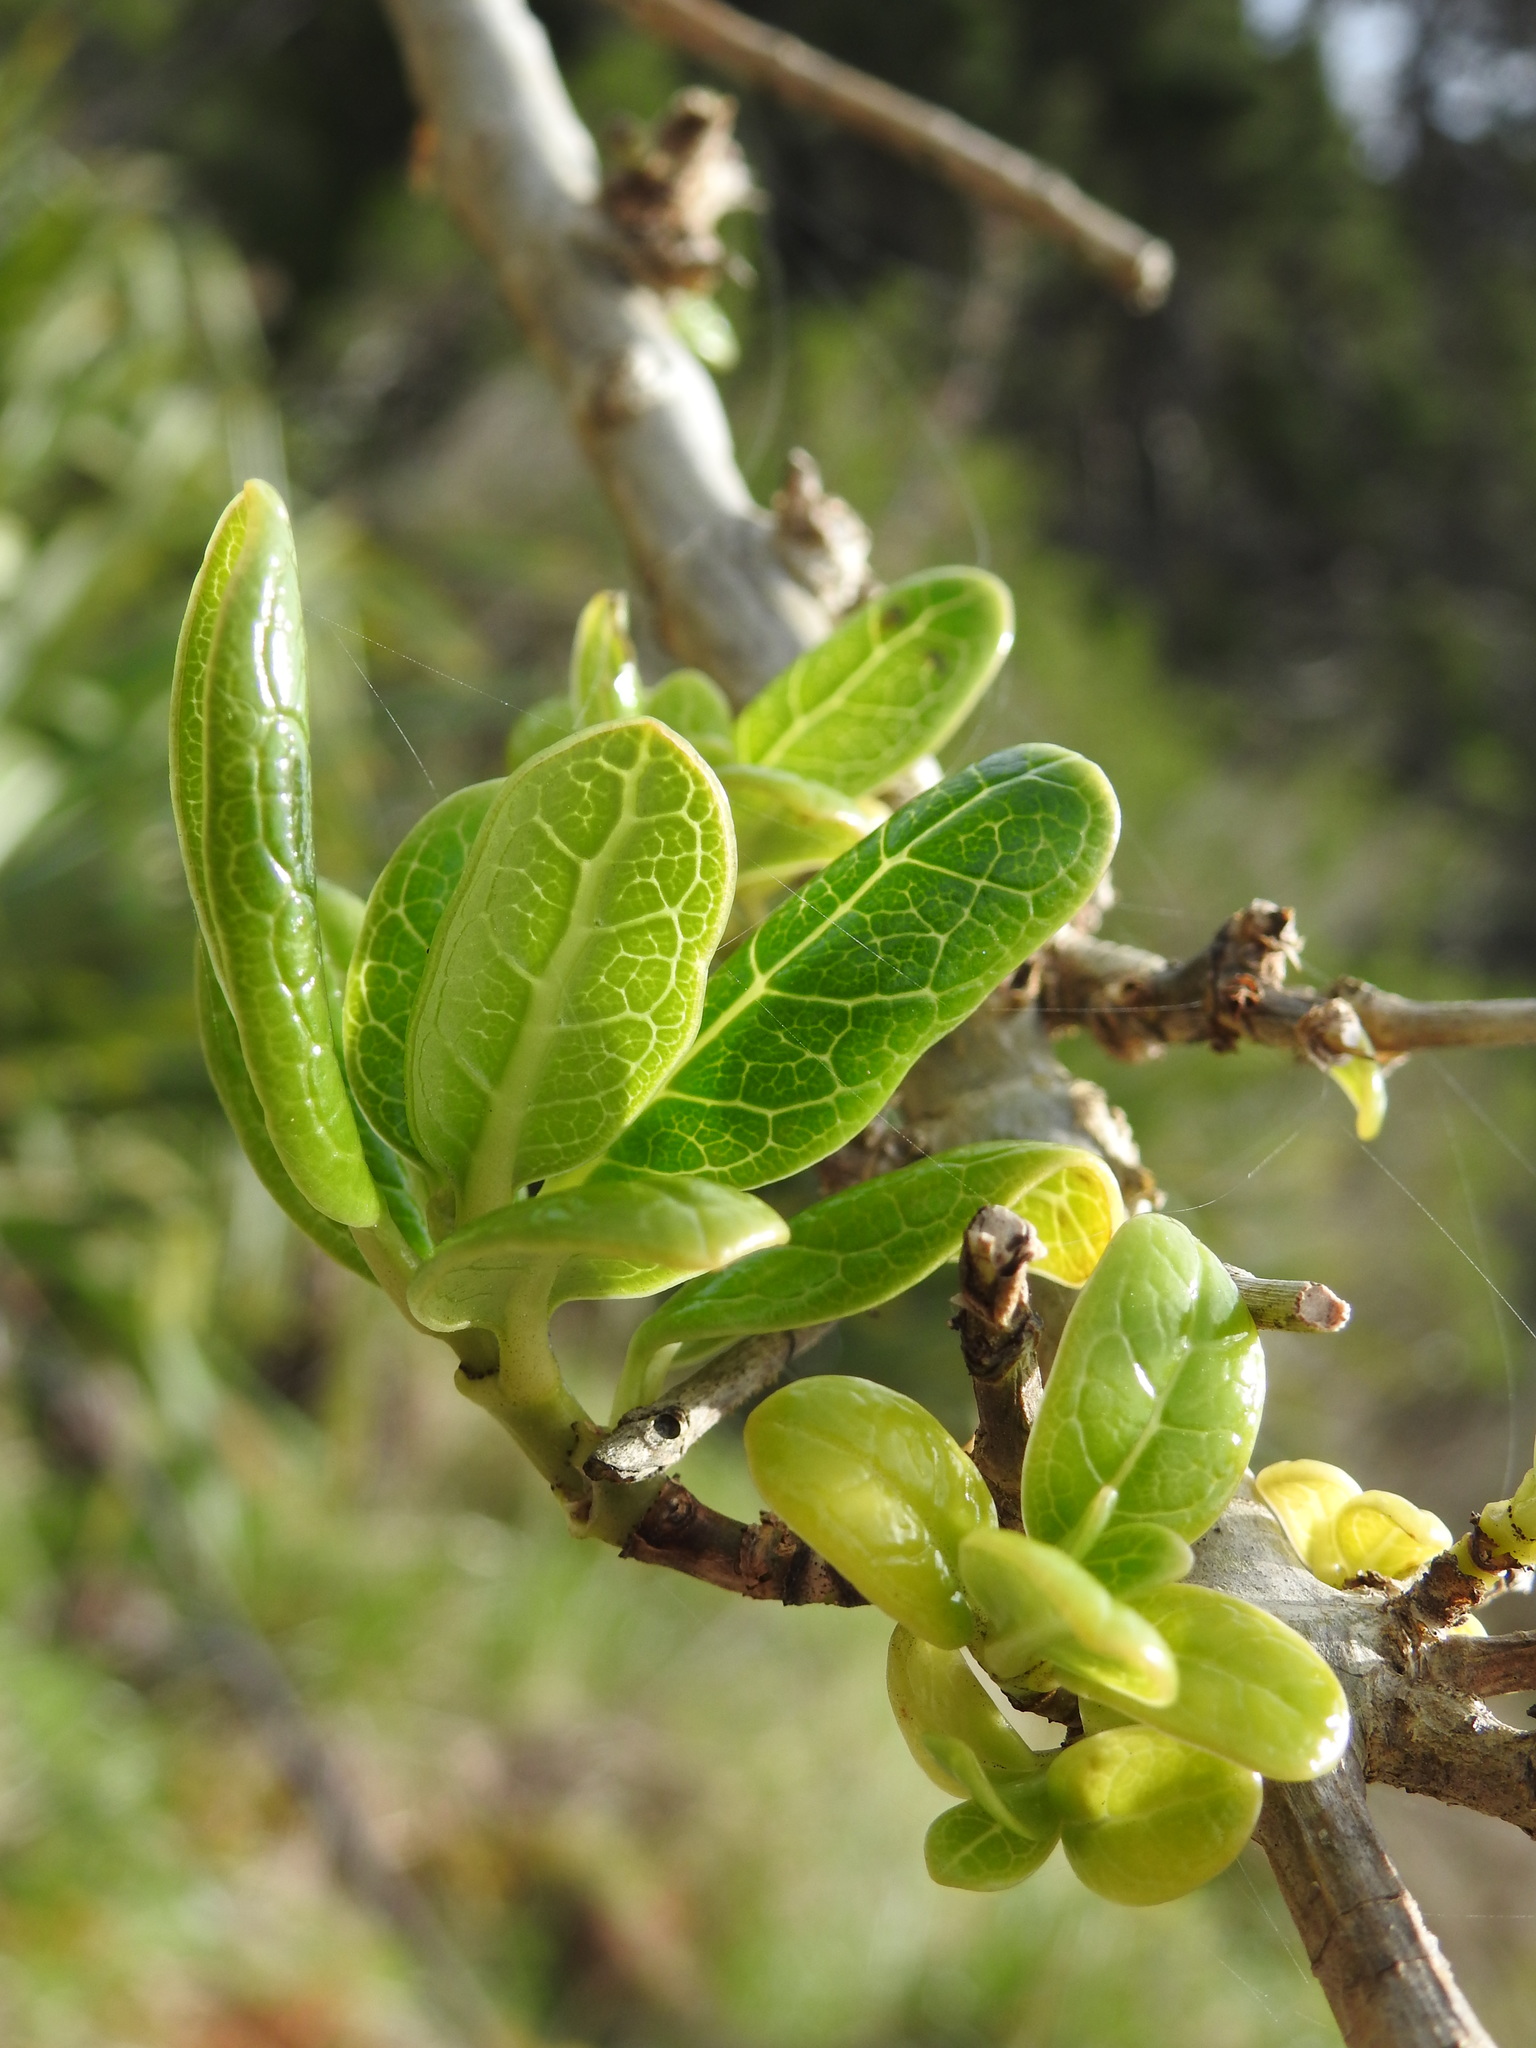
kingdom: Plantae
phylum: Tracheophyta
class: Magnoliopsida
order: Gentianales
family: Rubiaceae
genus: Coprosma
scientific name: Coprosma repens
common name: Tree bedstraw
